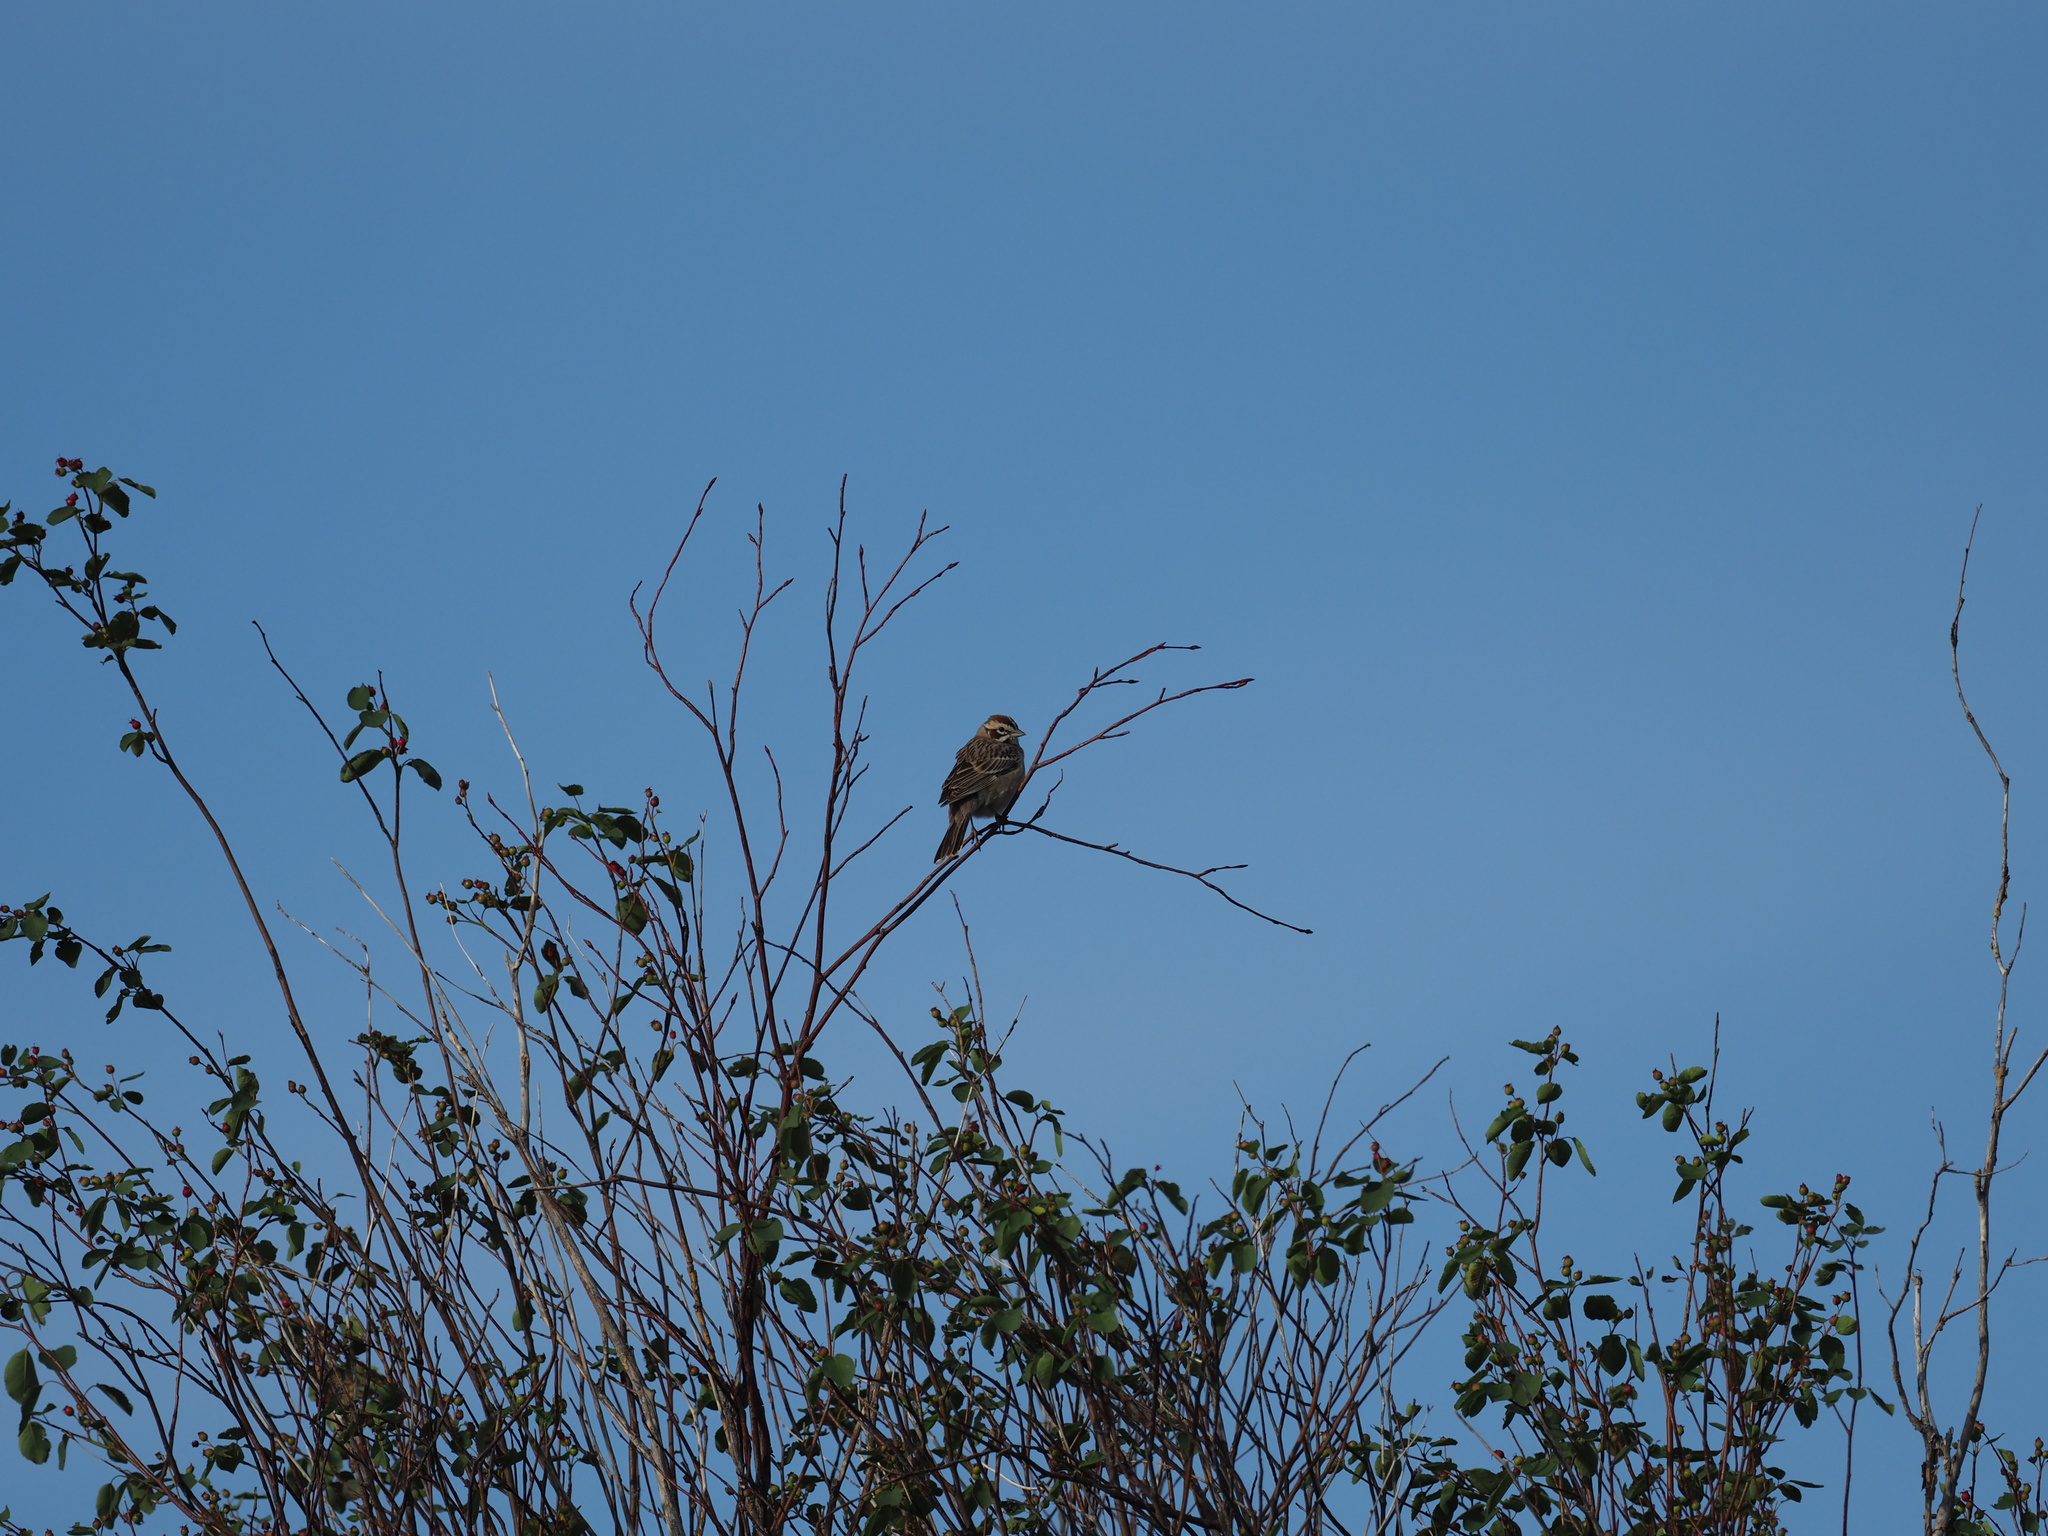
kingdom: Animalia
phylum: Chordata
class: Aves
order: Passeriformes
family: Passerellidae
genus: Chondestes
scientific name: Chondestes grammacus
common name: Lark sparrow
